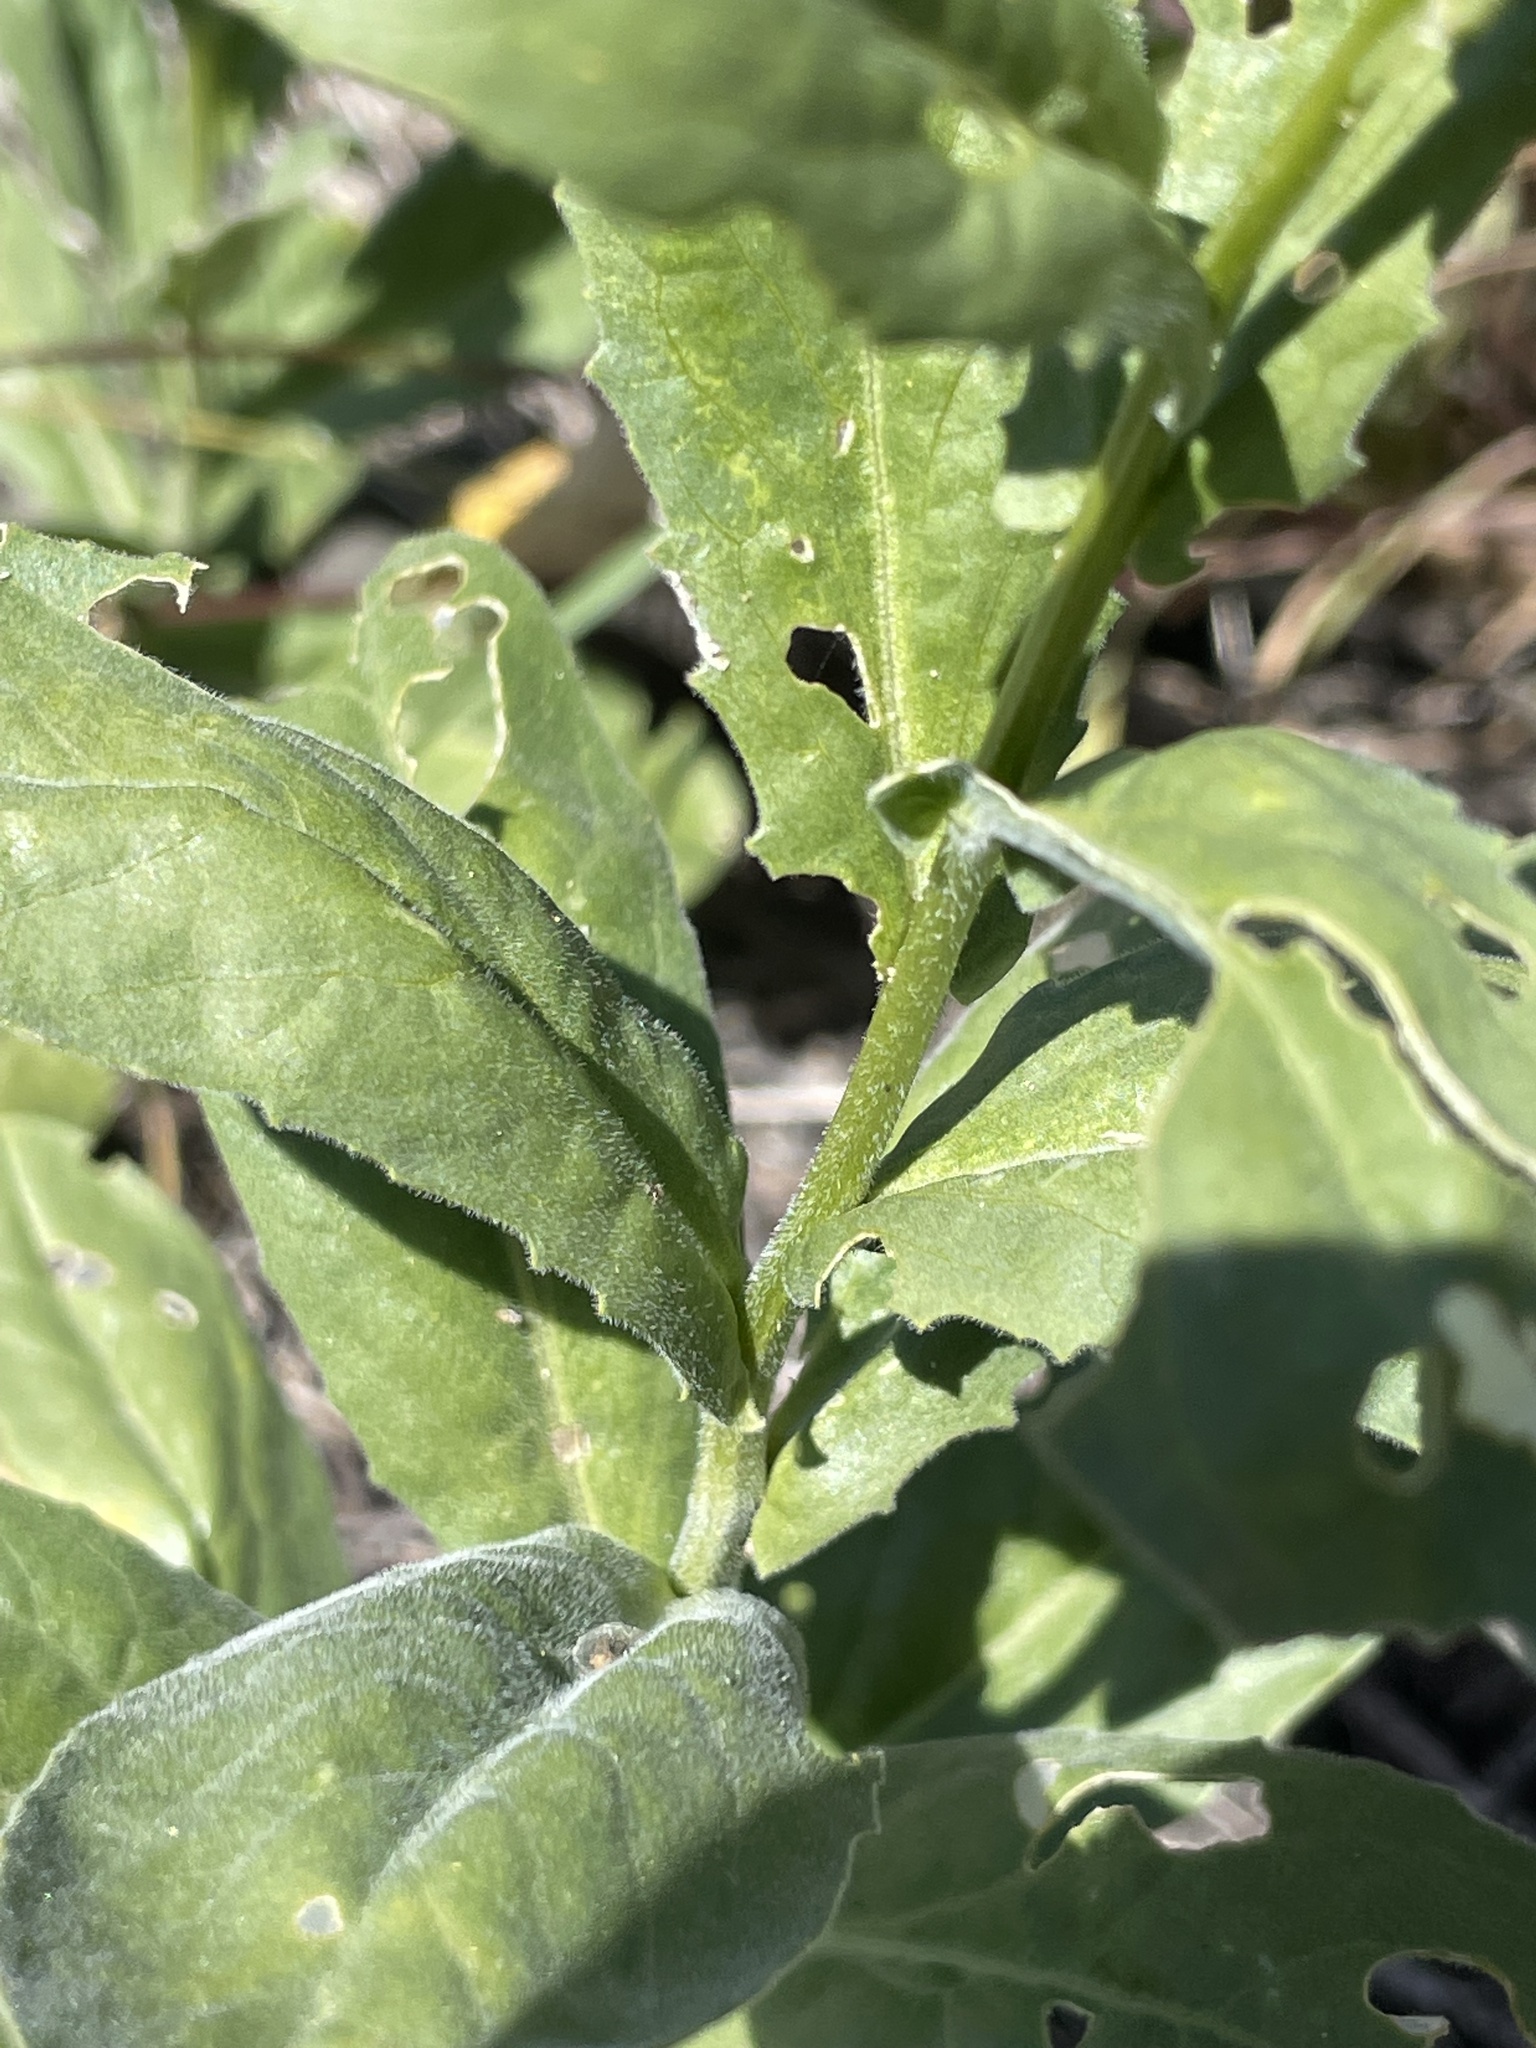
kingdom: Plantae
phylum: Tracheophyta
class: Magnoliopsida
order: Brassicales
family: Brassicaceae
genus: Lepidium
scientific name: Lepidium draba
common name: Hoary cress
